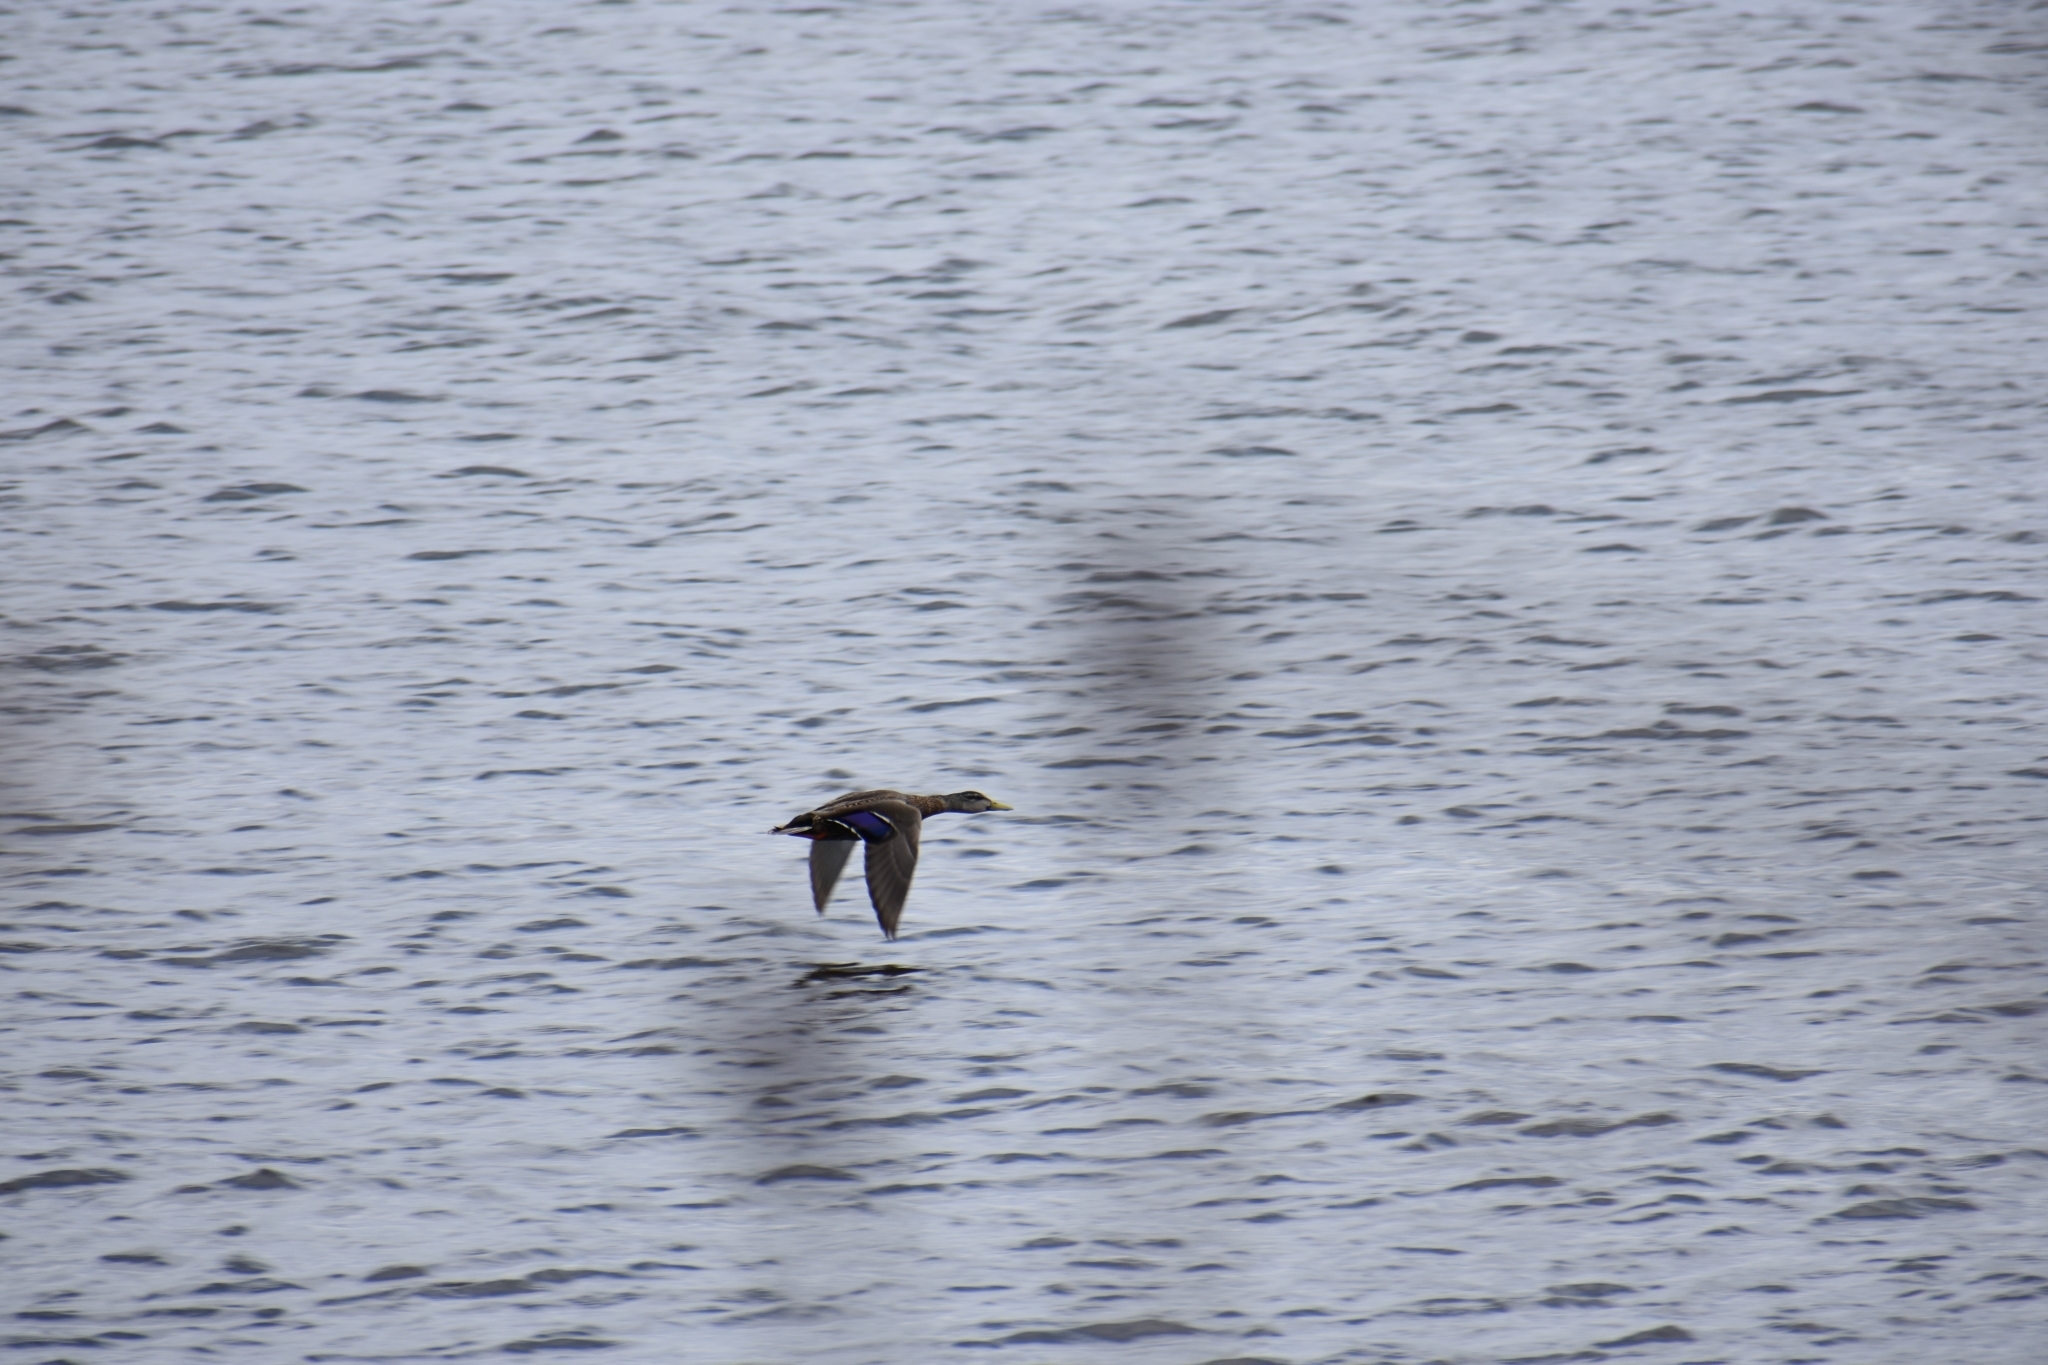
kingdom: Animalia
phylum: Chordata
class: Aves
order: Anseriformes
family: Anatidae
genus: Anas
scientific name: Anas platyrhynchos
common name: Mallard
